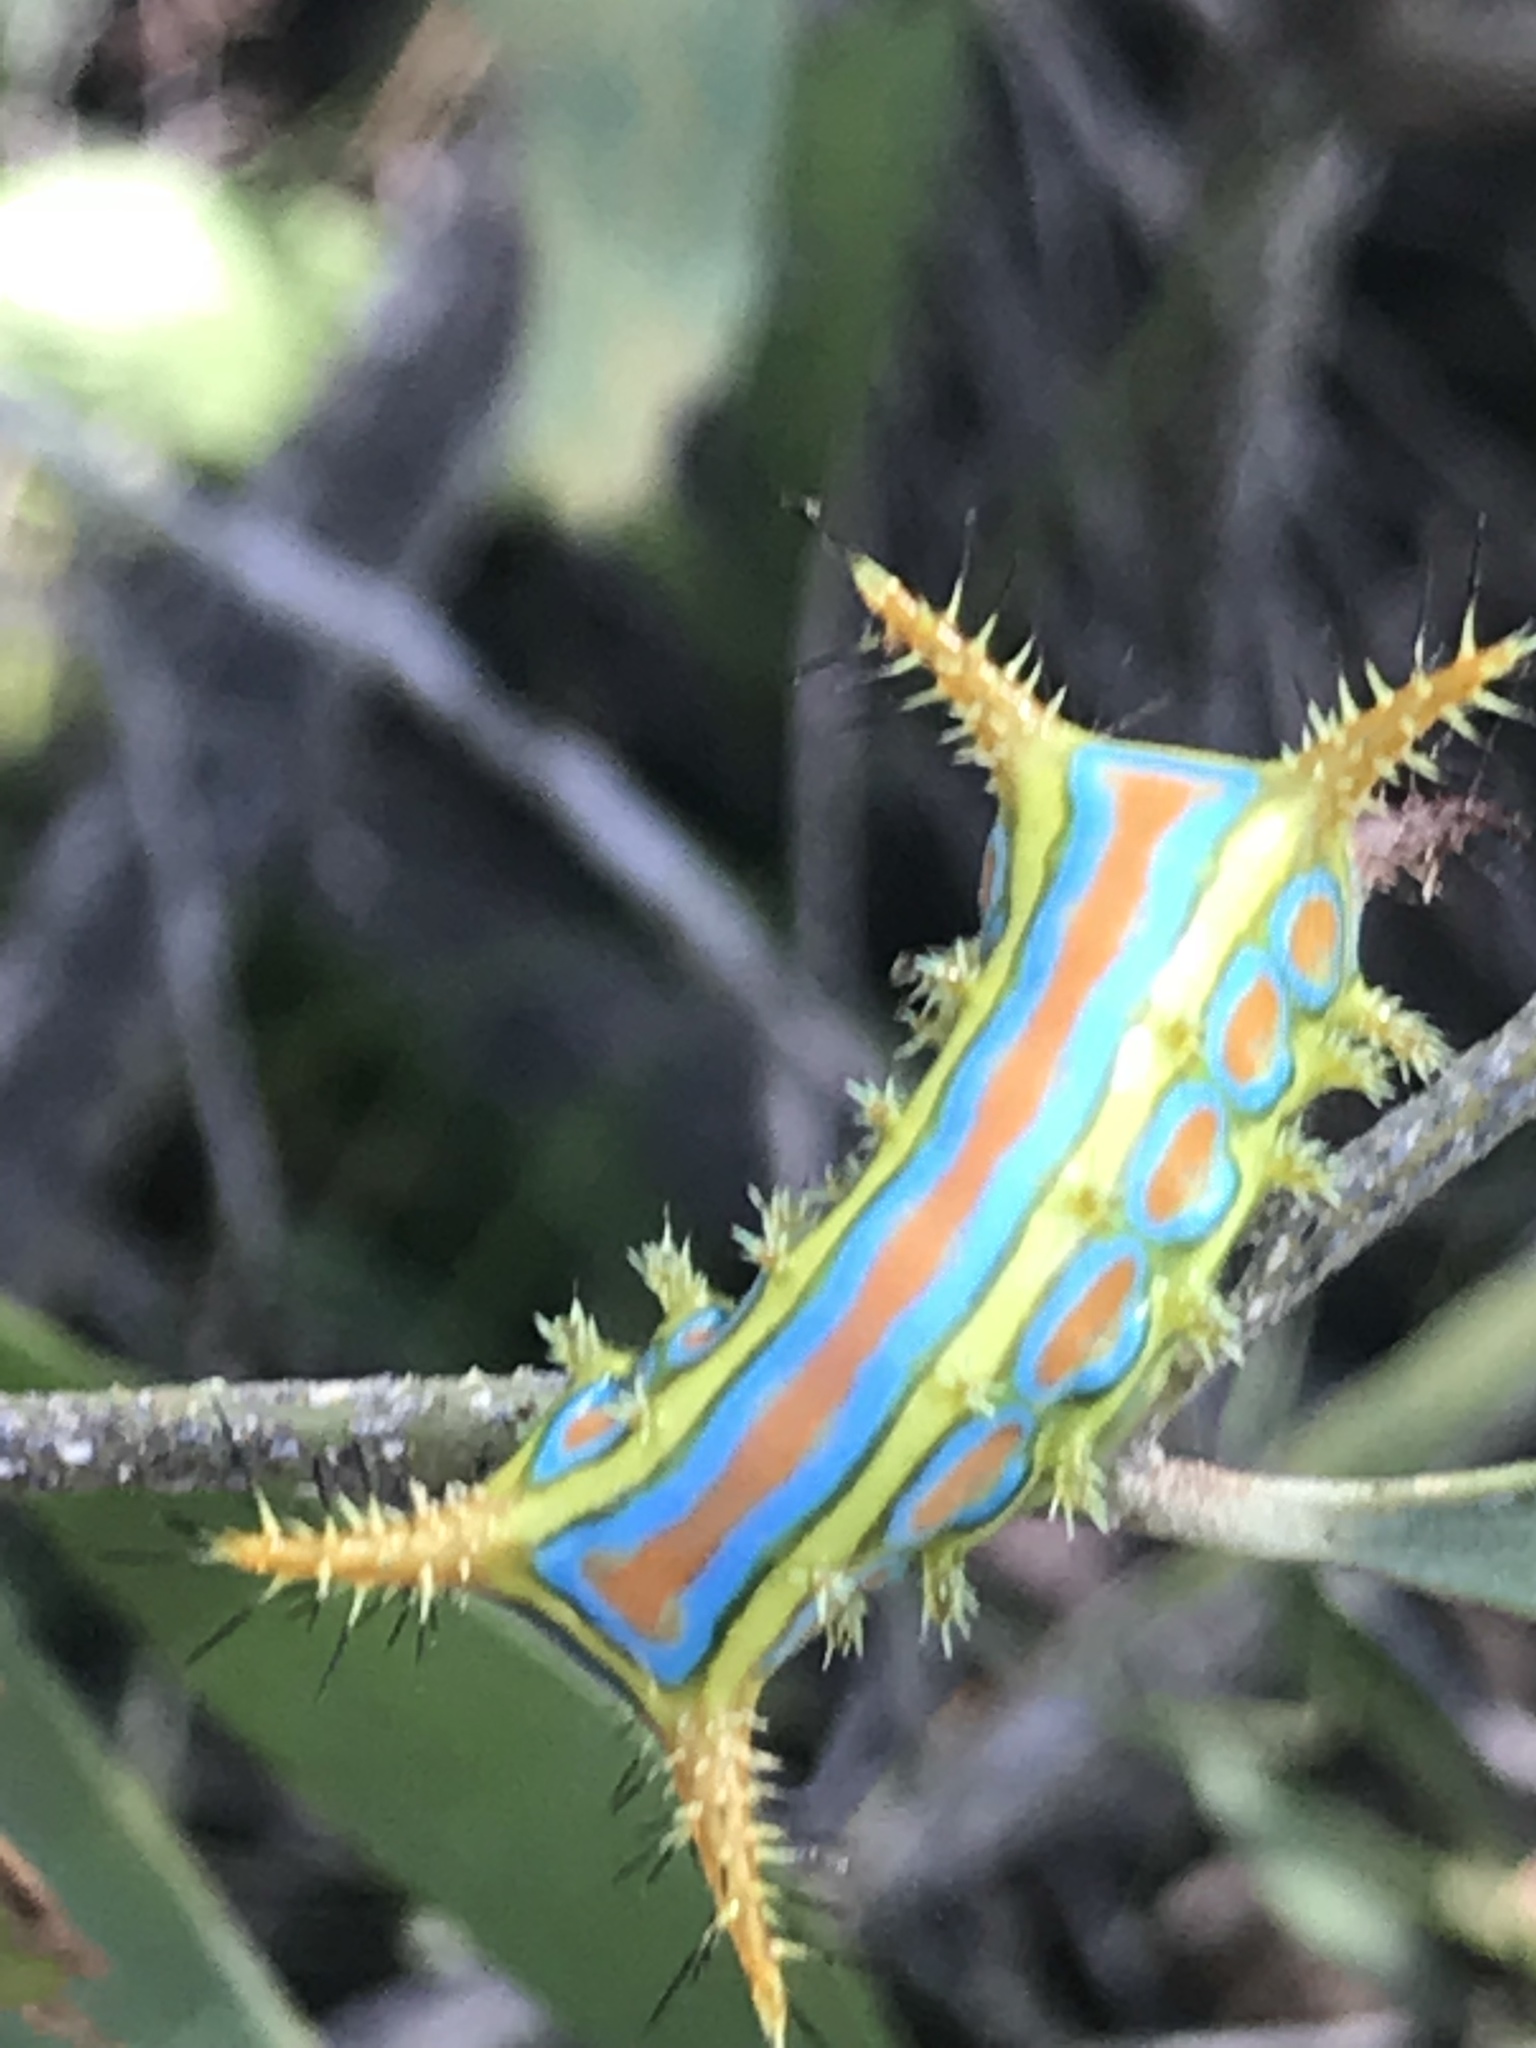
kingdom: Animalia
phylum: Arthropoda
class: Insecta
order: Lepidoptera
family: Limacodidae
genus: Comana
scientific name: Comana albibasis
